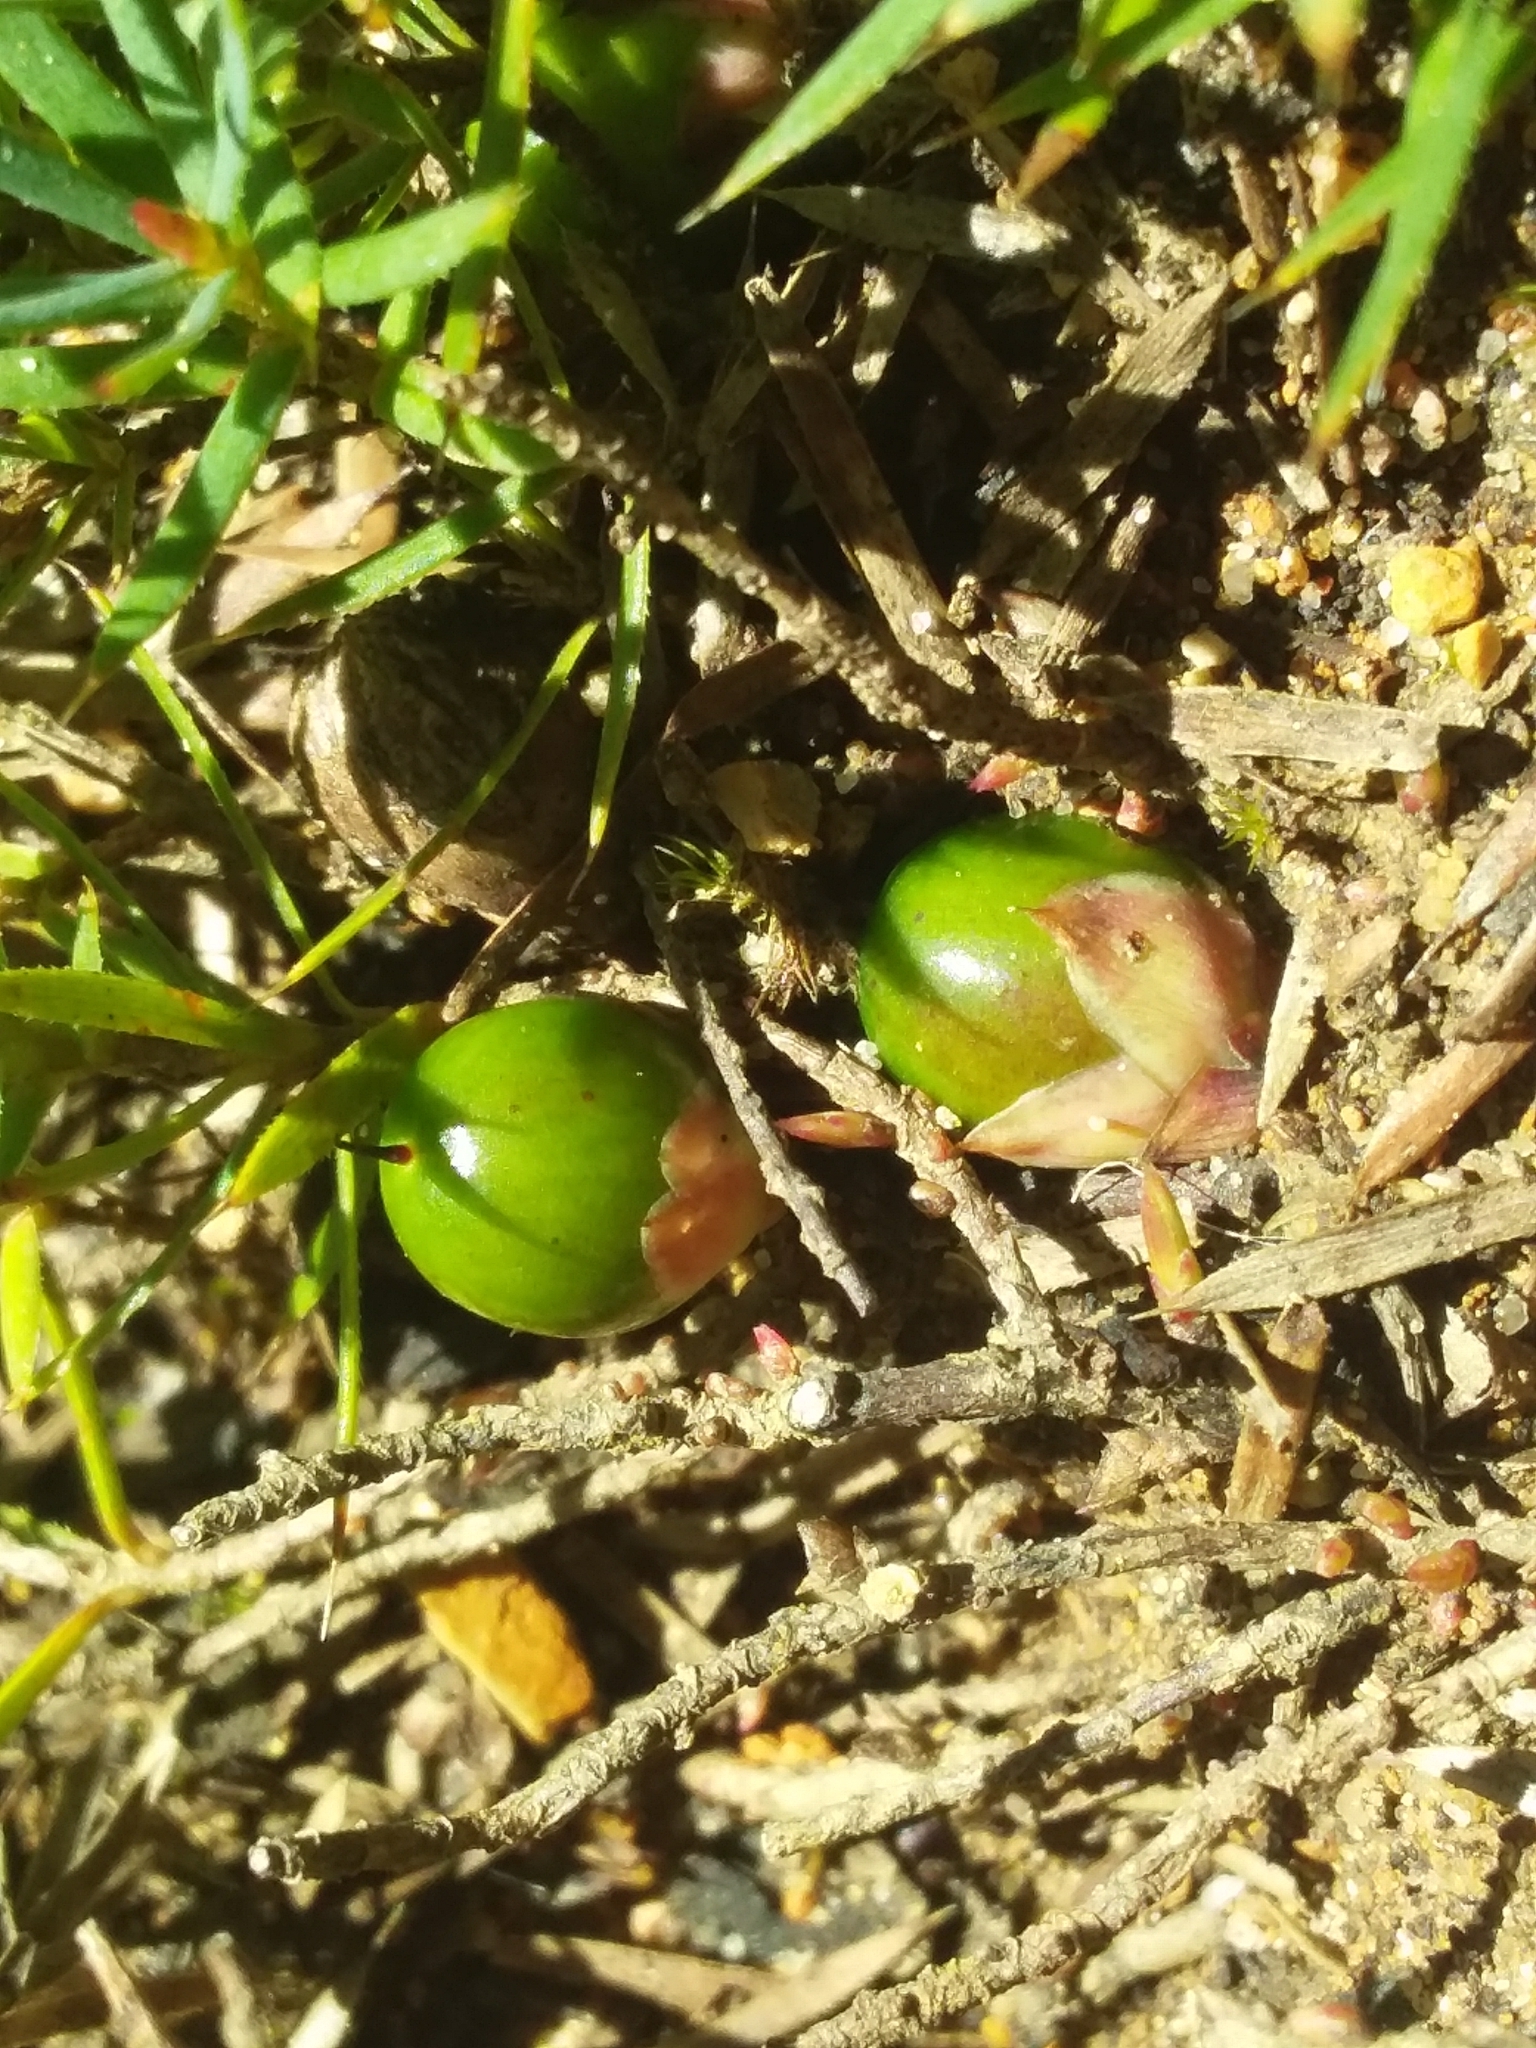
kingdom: Plantae
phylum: Tracheophyta
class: Magnoliopsida
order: Ericales
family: Ericaceae
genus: Styphelia
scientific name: Styphelia humifusa
